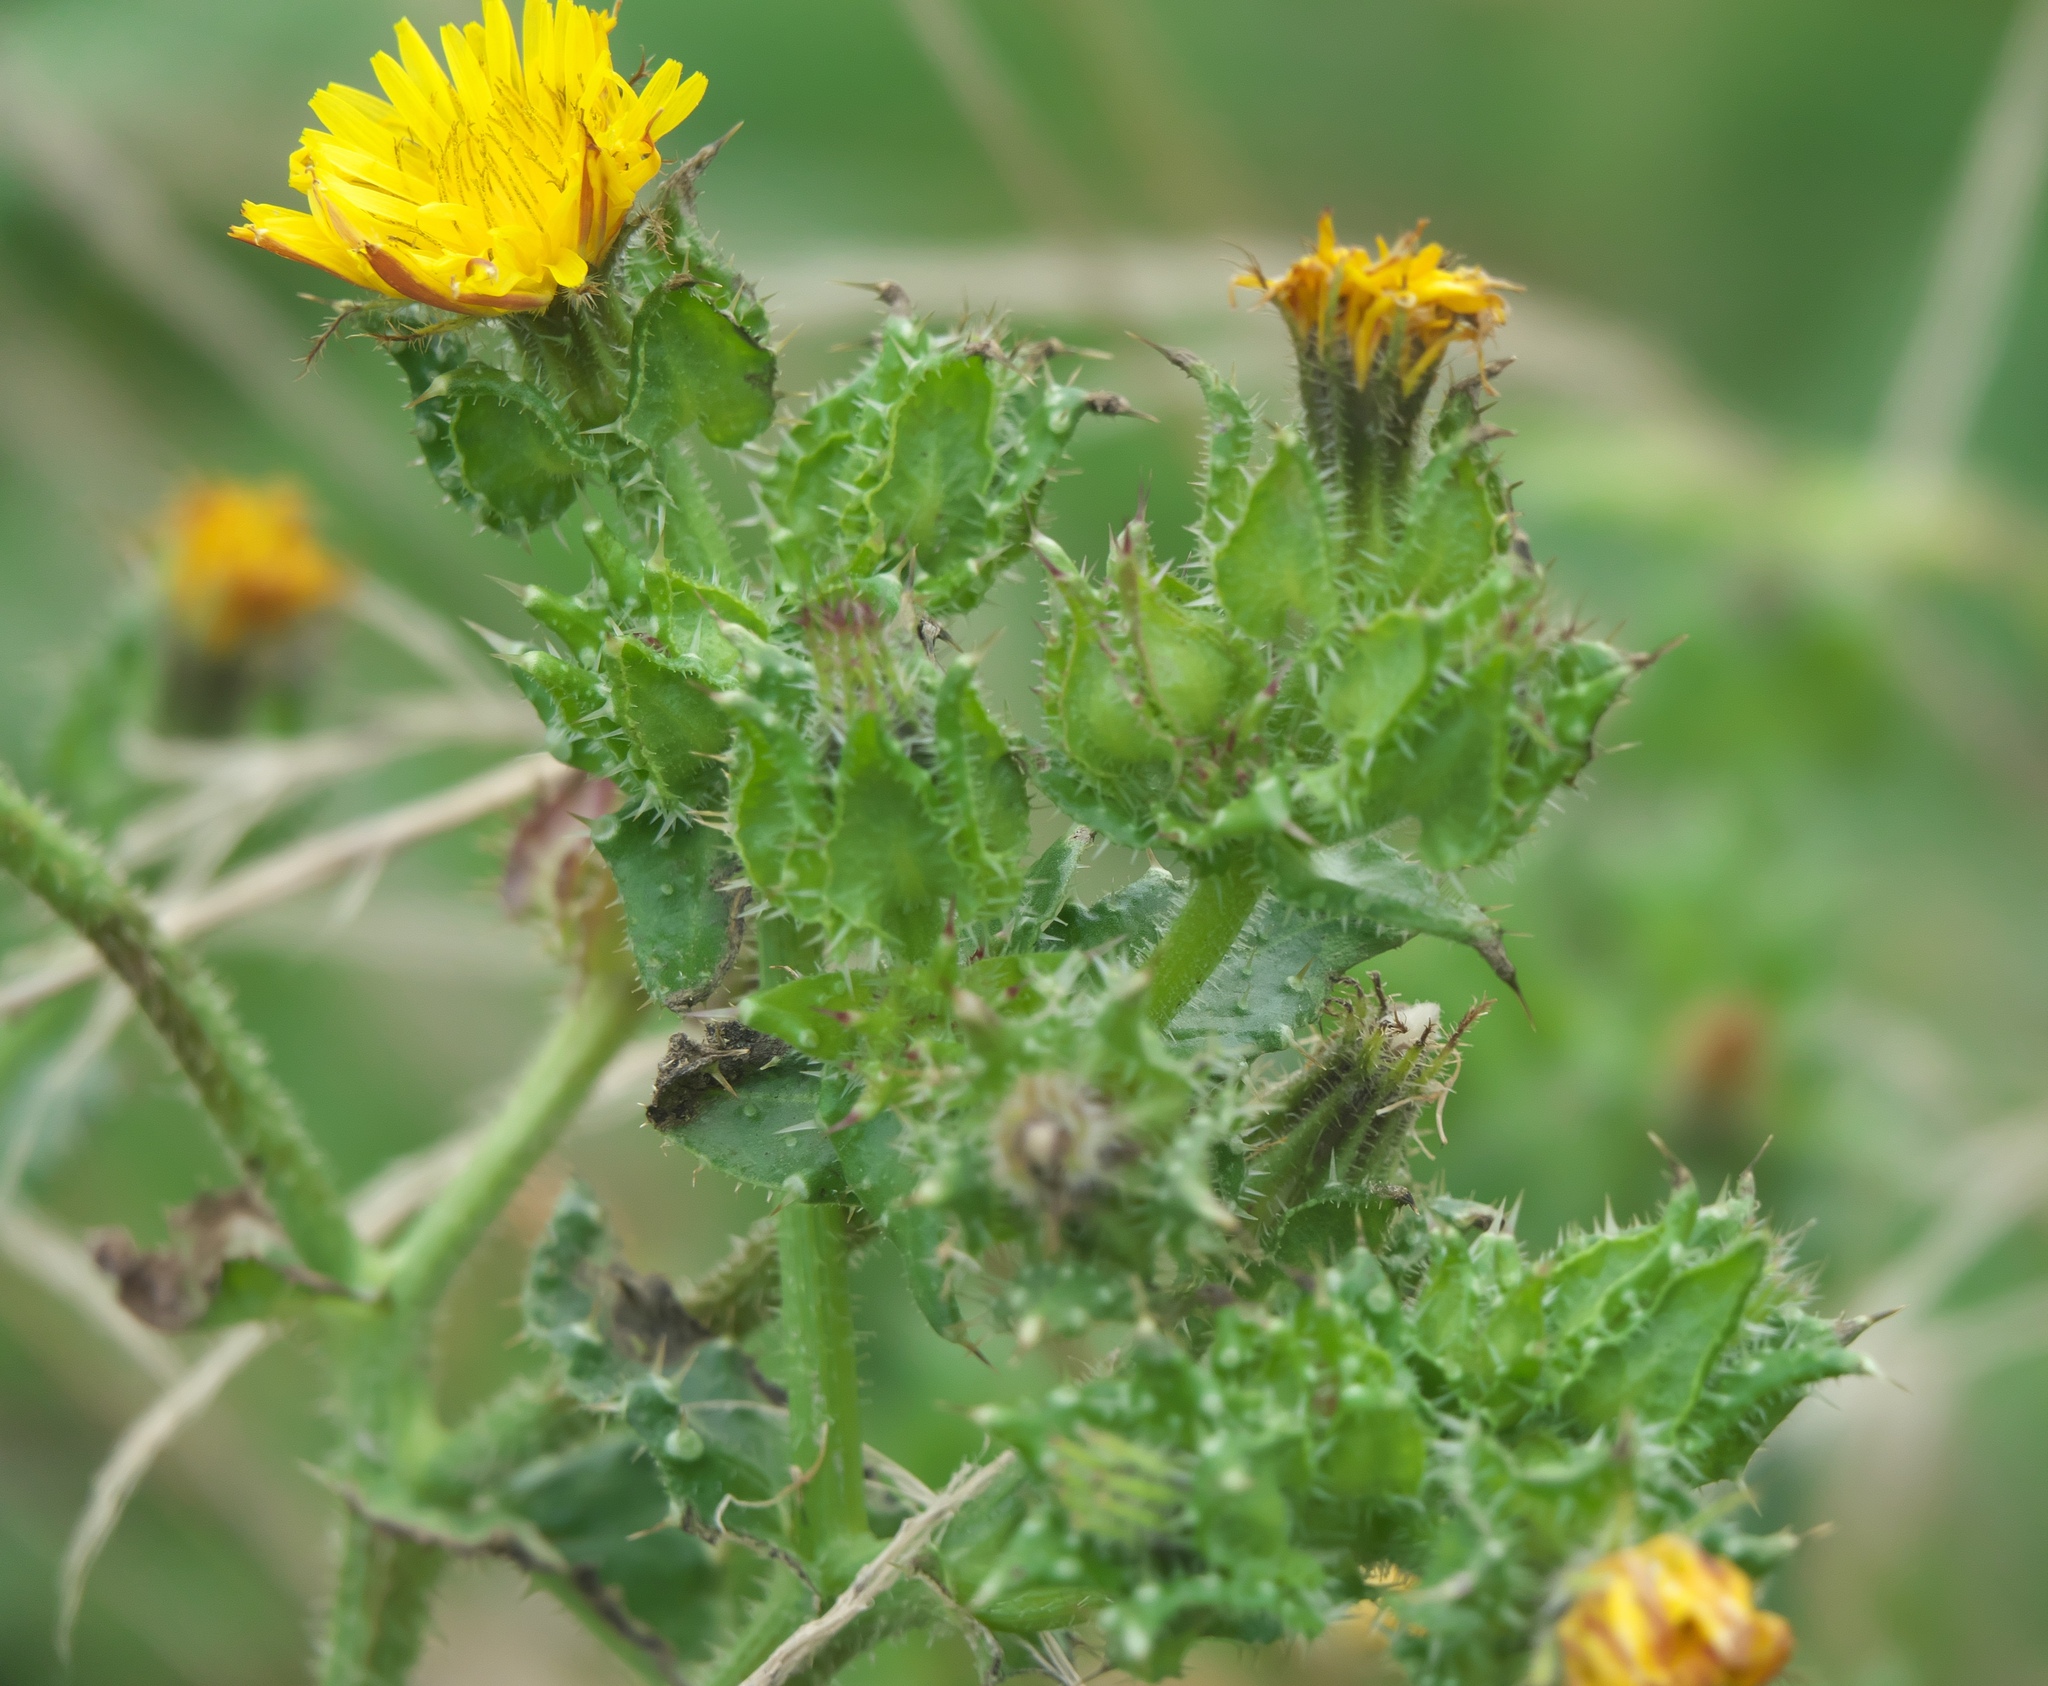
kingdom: Plantae
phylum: Tracheophyta
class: Magnoliopsida
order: Asterales
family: Asteraceae
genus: Helminthotheca
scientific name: Helminthotheca echioides
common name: Ox-tongue
